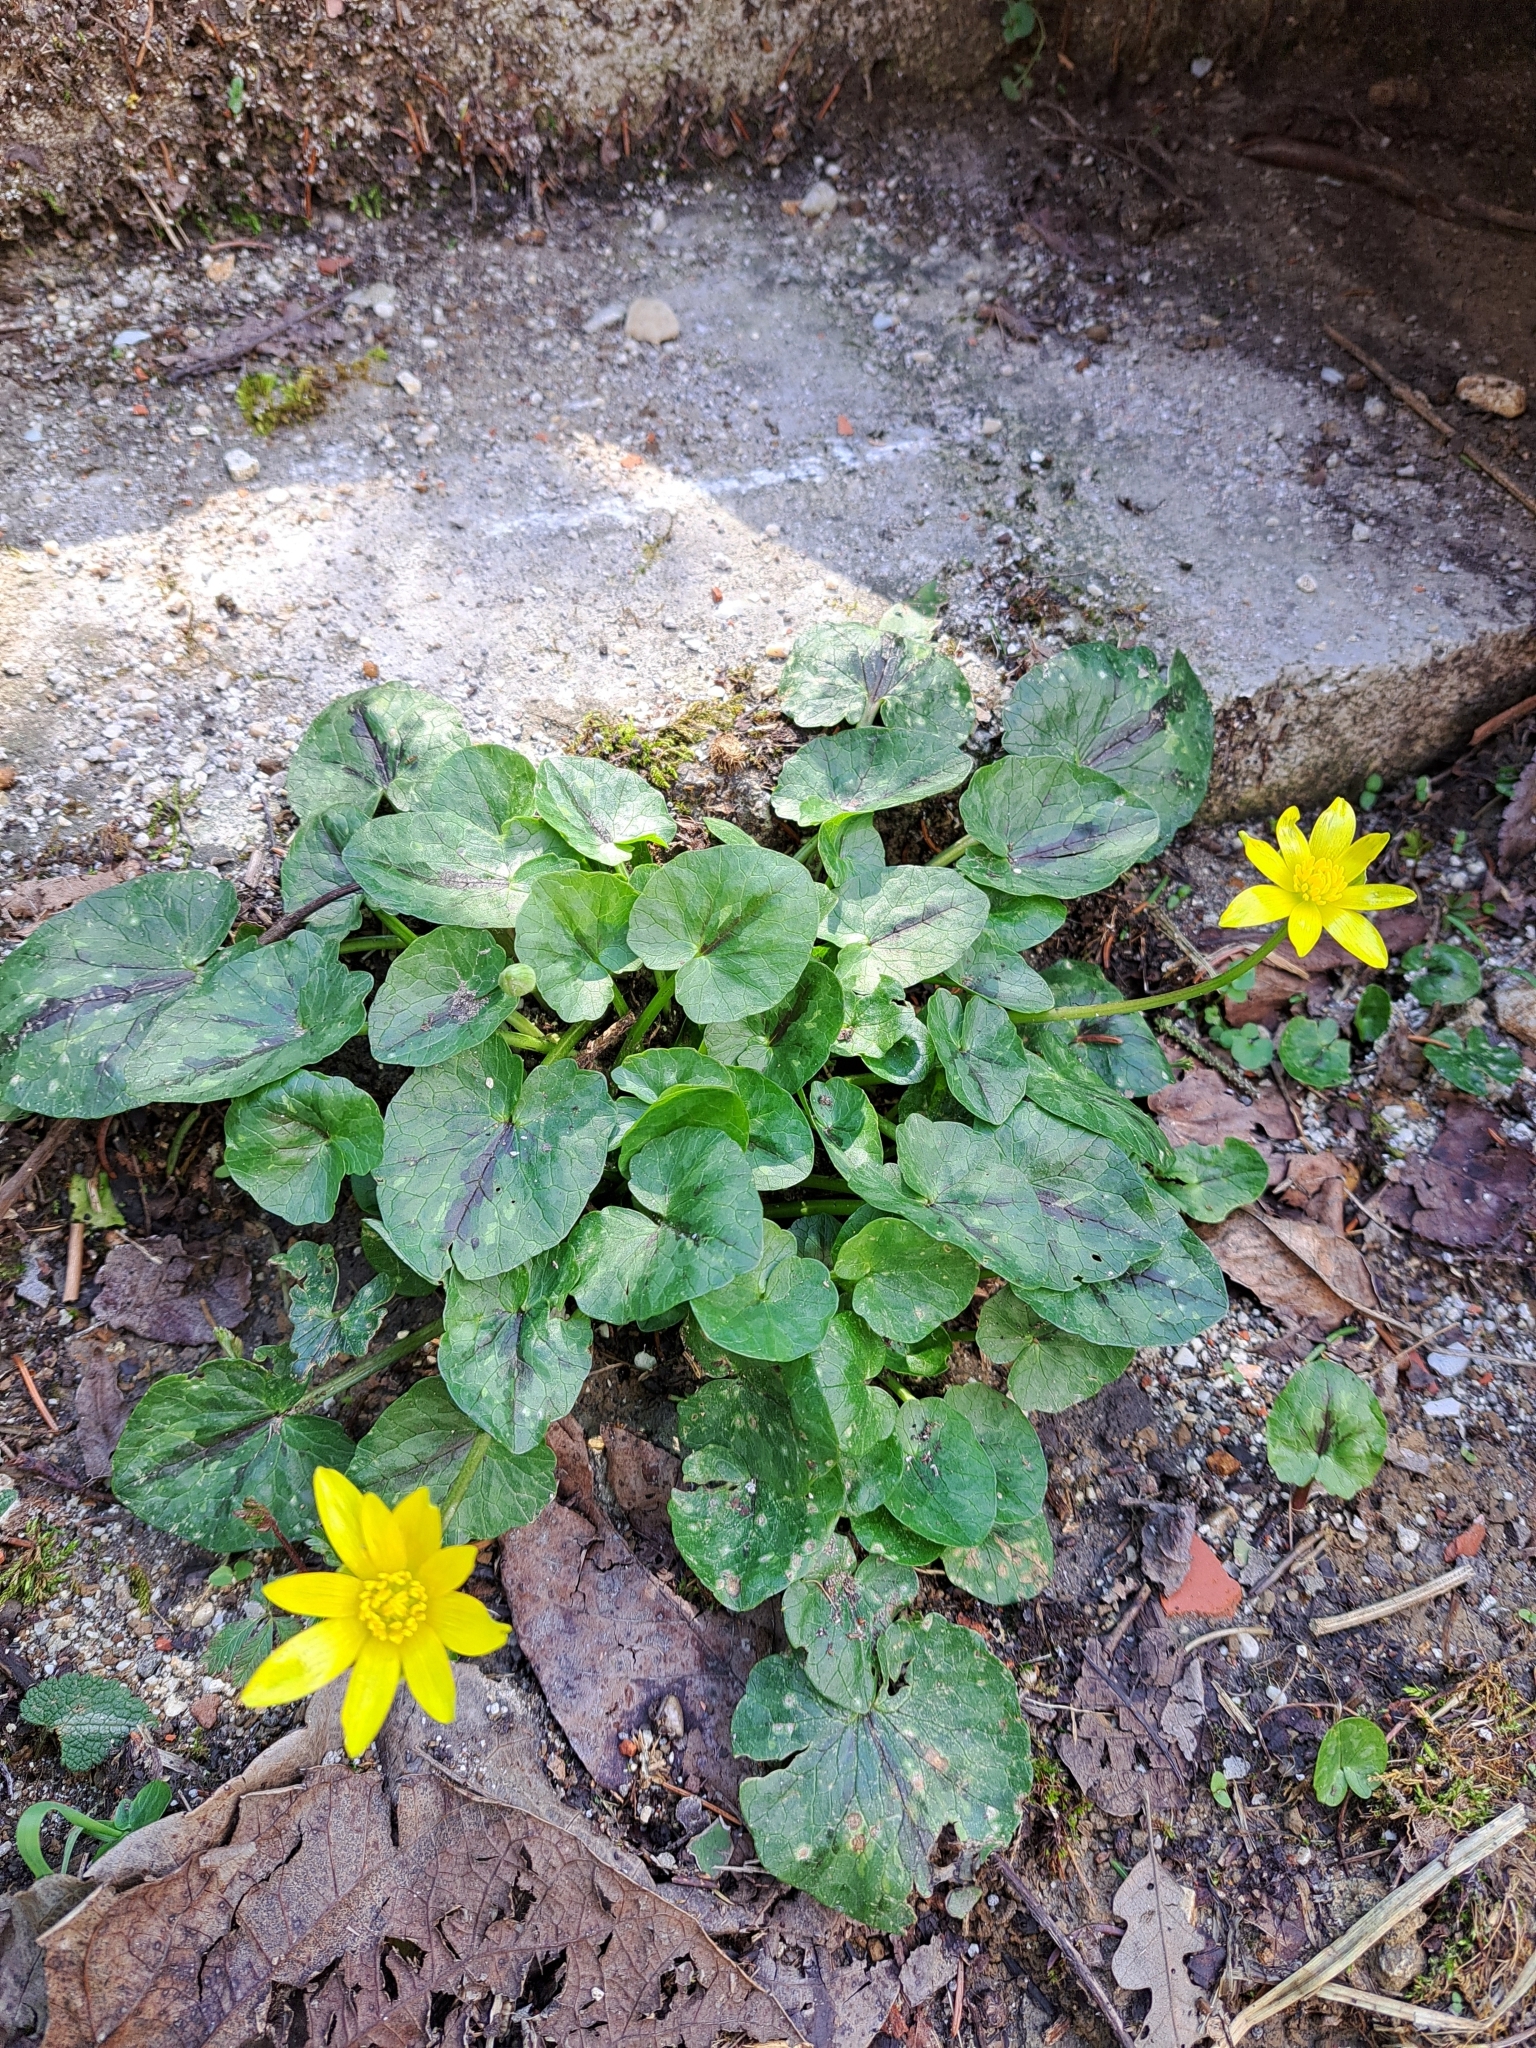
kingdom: Plantae
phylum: Tracheophyta
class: Magnoliopsida
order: Ranunculales
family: Ranunculaceae
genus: Ficaria
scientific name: Ficaria verna
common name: Lesser celandine
